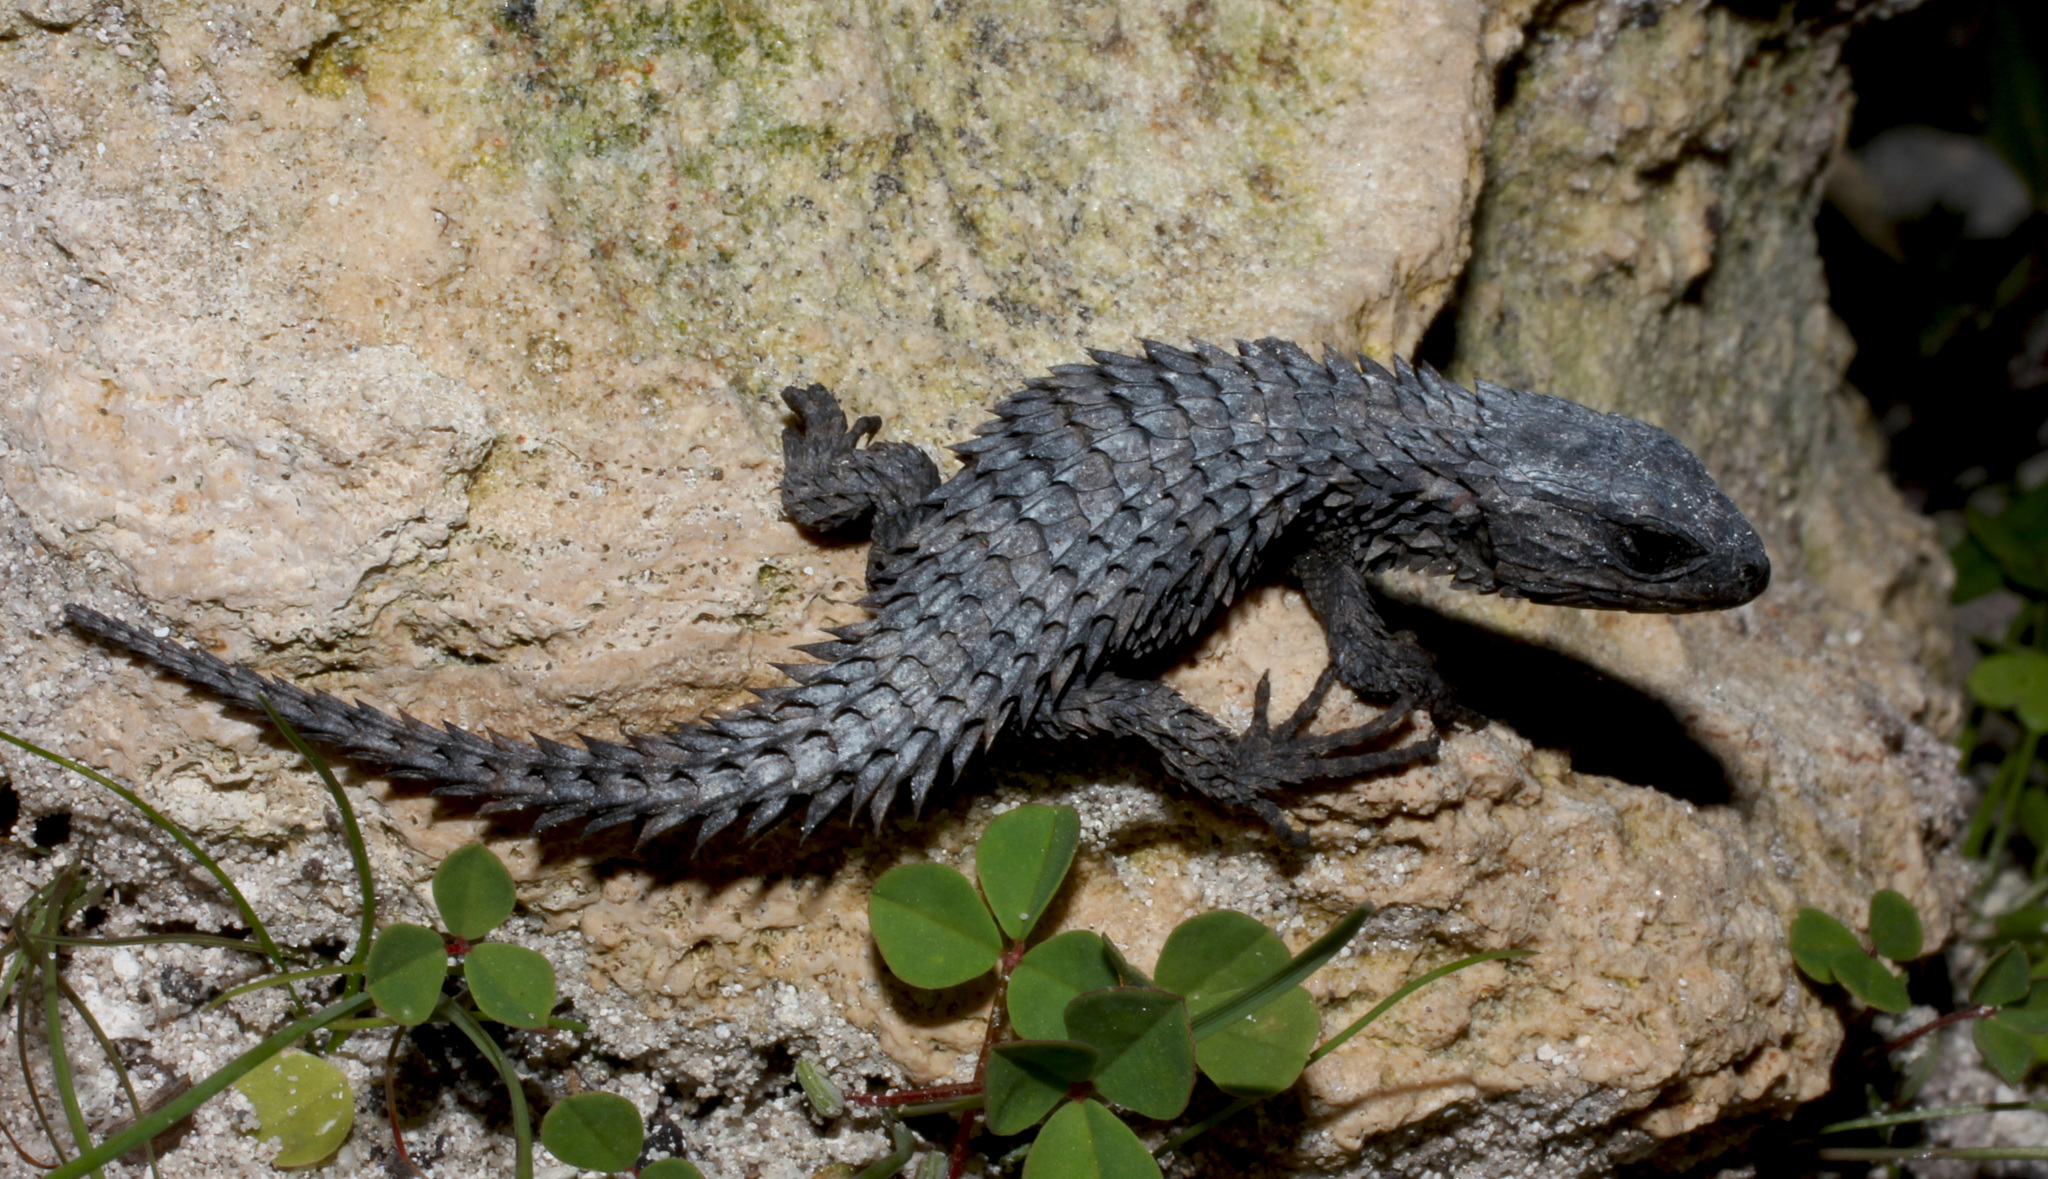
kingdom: Animalia
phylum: Chordata
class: Squamata
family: Cordylidae
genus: Cordylus
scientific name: Cordylus macropholis
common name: Large-scaled girdled lizard
